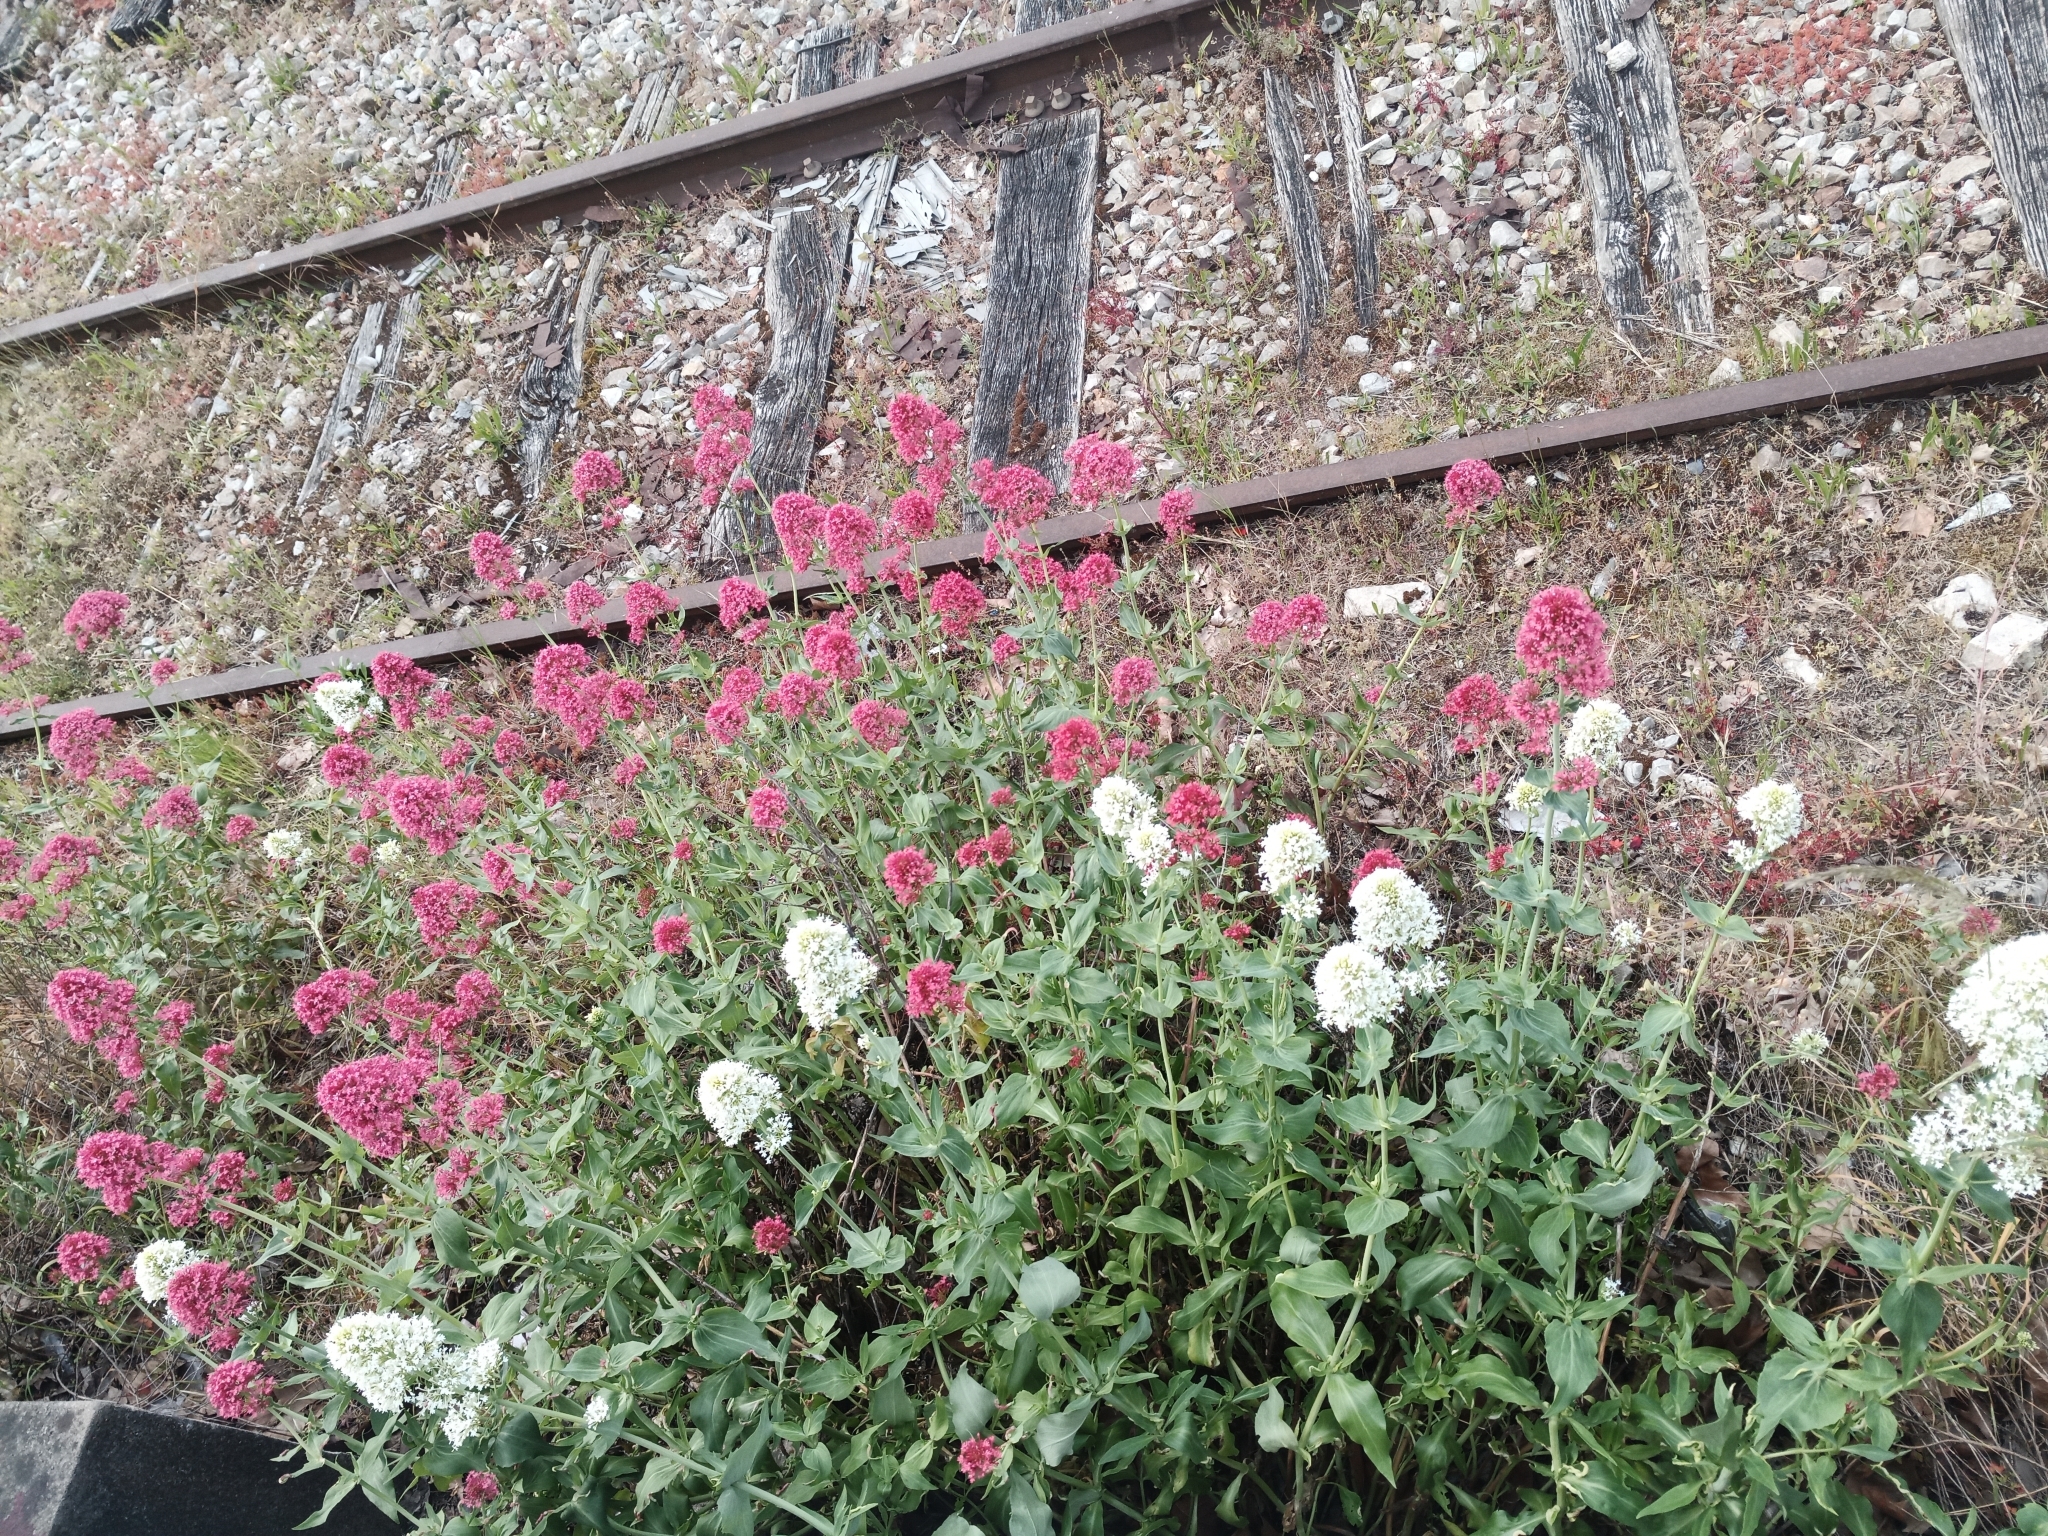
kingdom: Plantae
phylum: Tracheophyta
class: Magnoliopsida
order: Dipsacales
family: Caprifoliaceae
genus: Centranthus
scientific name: Centranthus ruber
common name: Red valerian
